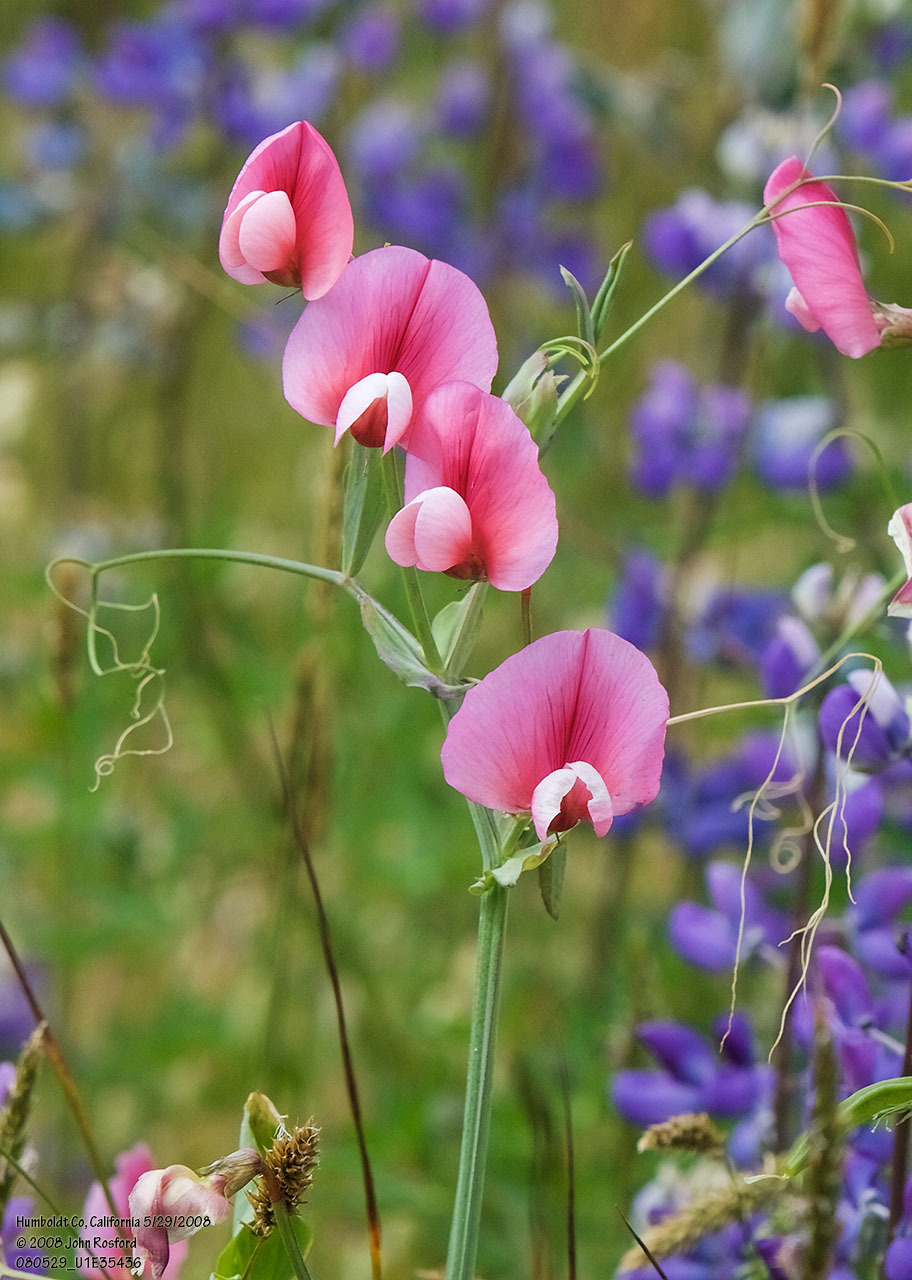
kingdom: Plantae
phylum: Tracheophyta
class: Magnoliopsida
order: Fabales
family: Fabaceae
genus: Lathyrus
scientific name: Lathyrus tingitanus
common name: Tangier pea
